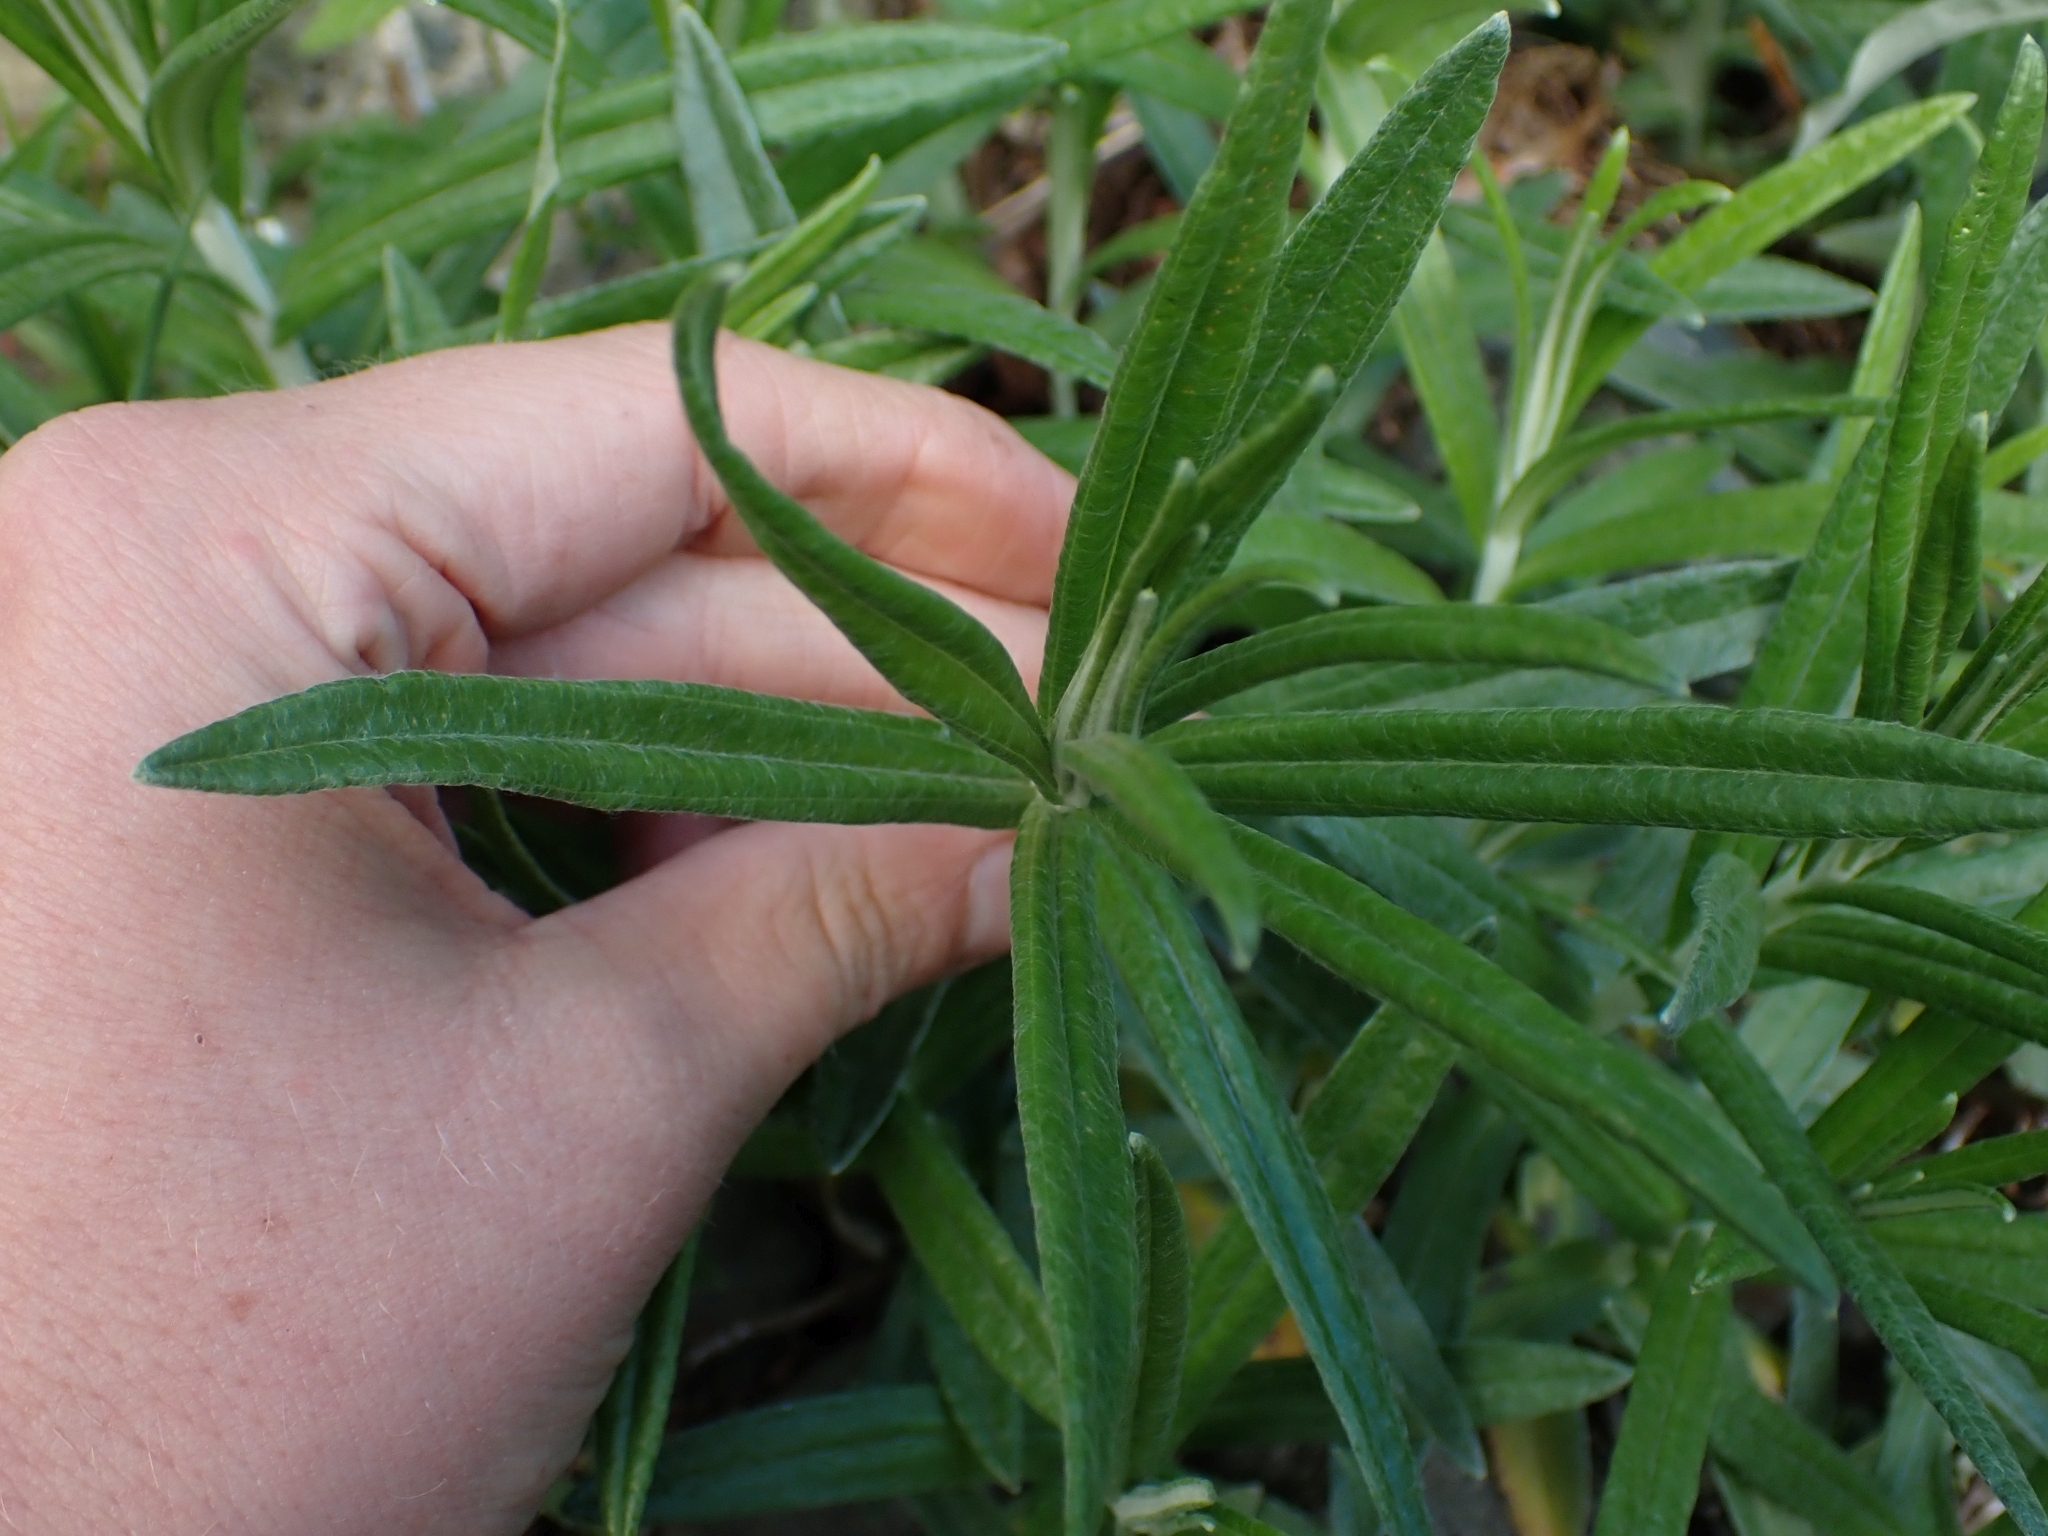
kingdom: Plantae
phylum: Tracheophyta
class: Magnoliopsida
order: Asterales
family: Asteraceae
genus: Anaphalis
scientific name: Anaphalis margaritacea
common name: Pearly everlasting
